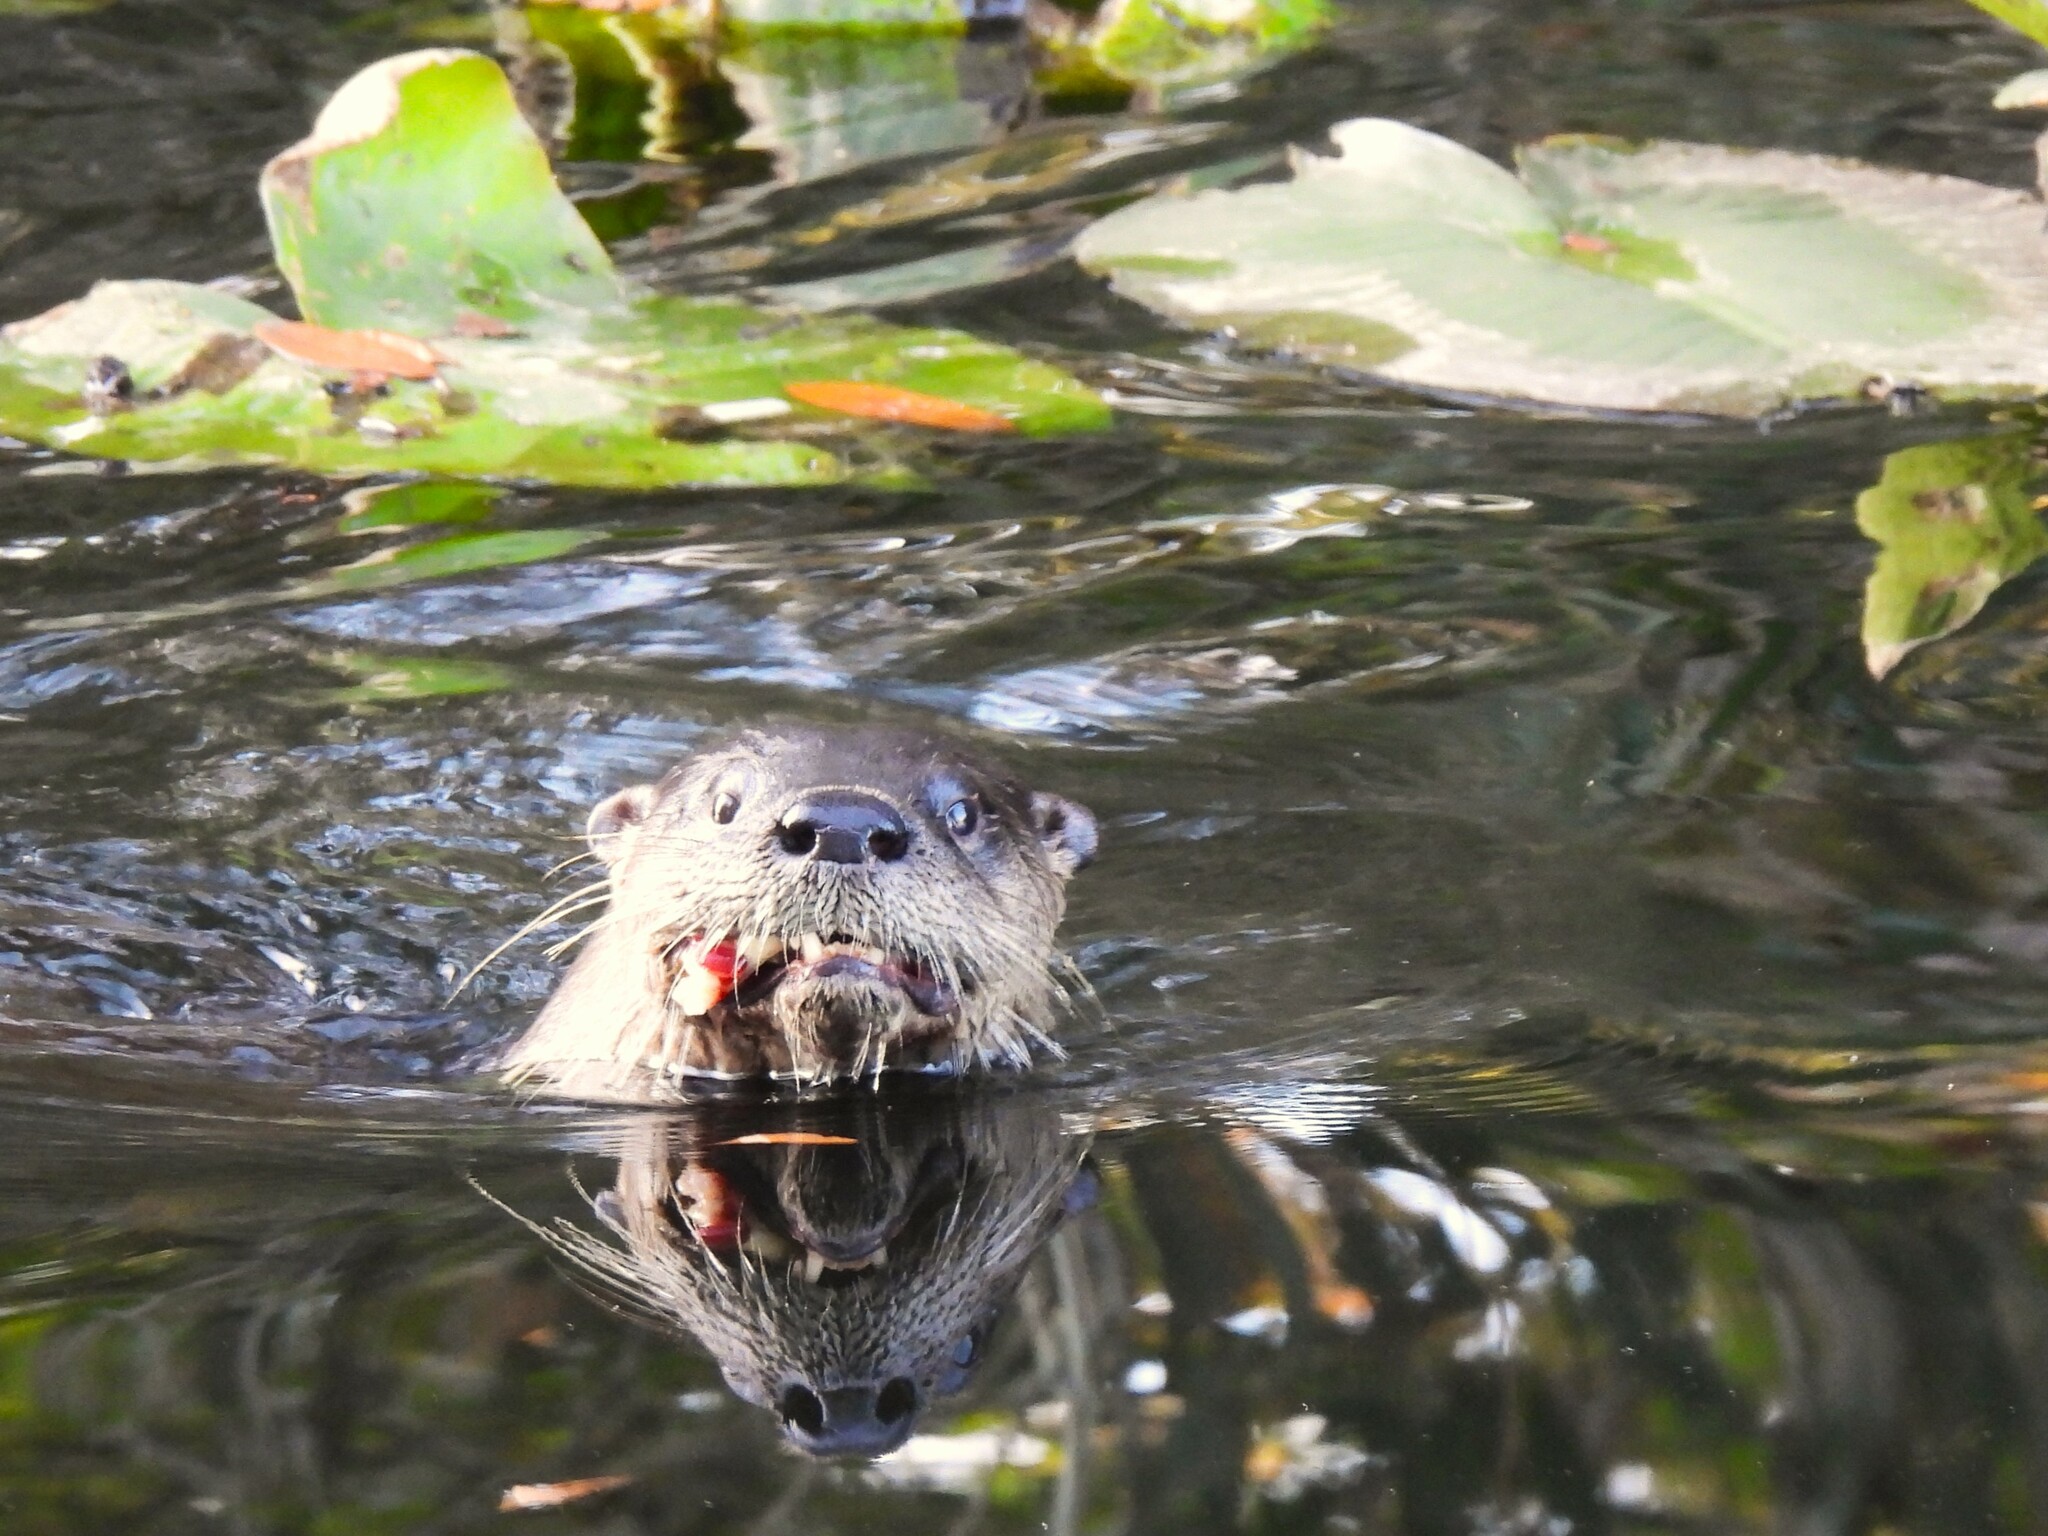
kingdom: Animalia
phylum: Chordata
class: Mammalia
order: Carnivora
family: Mustelidae
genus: Lontra
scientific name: Lontra canadensis
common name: North american river otter
